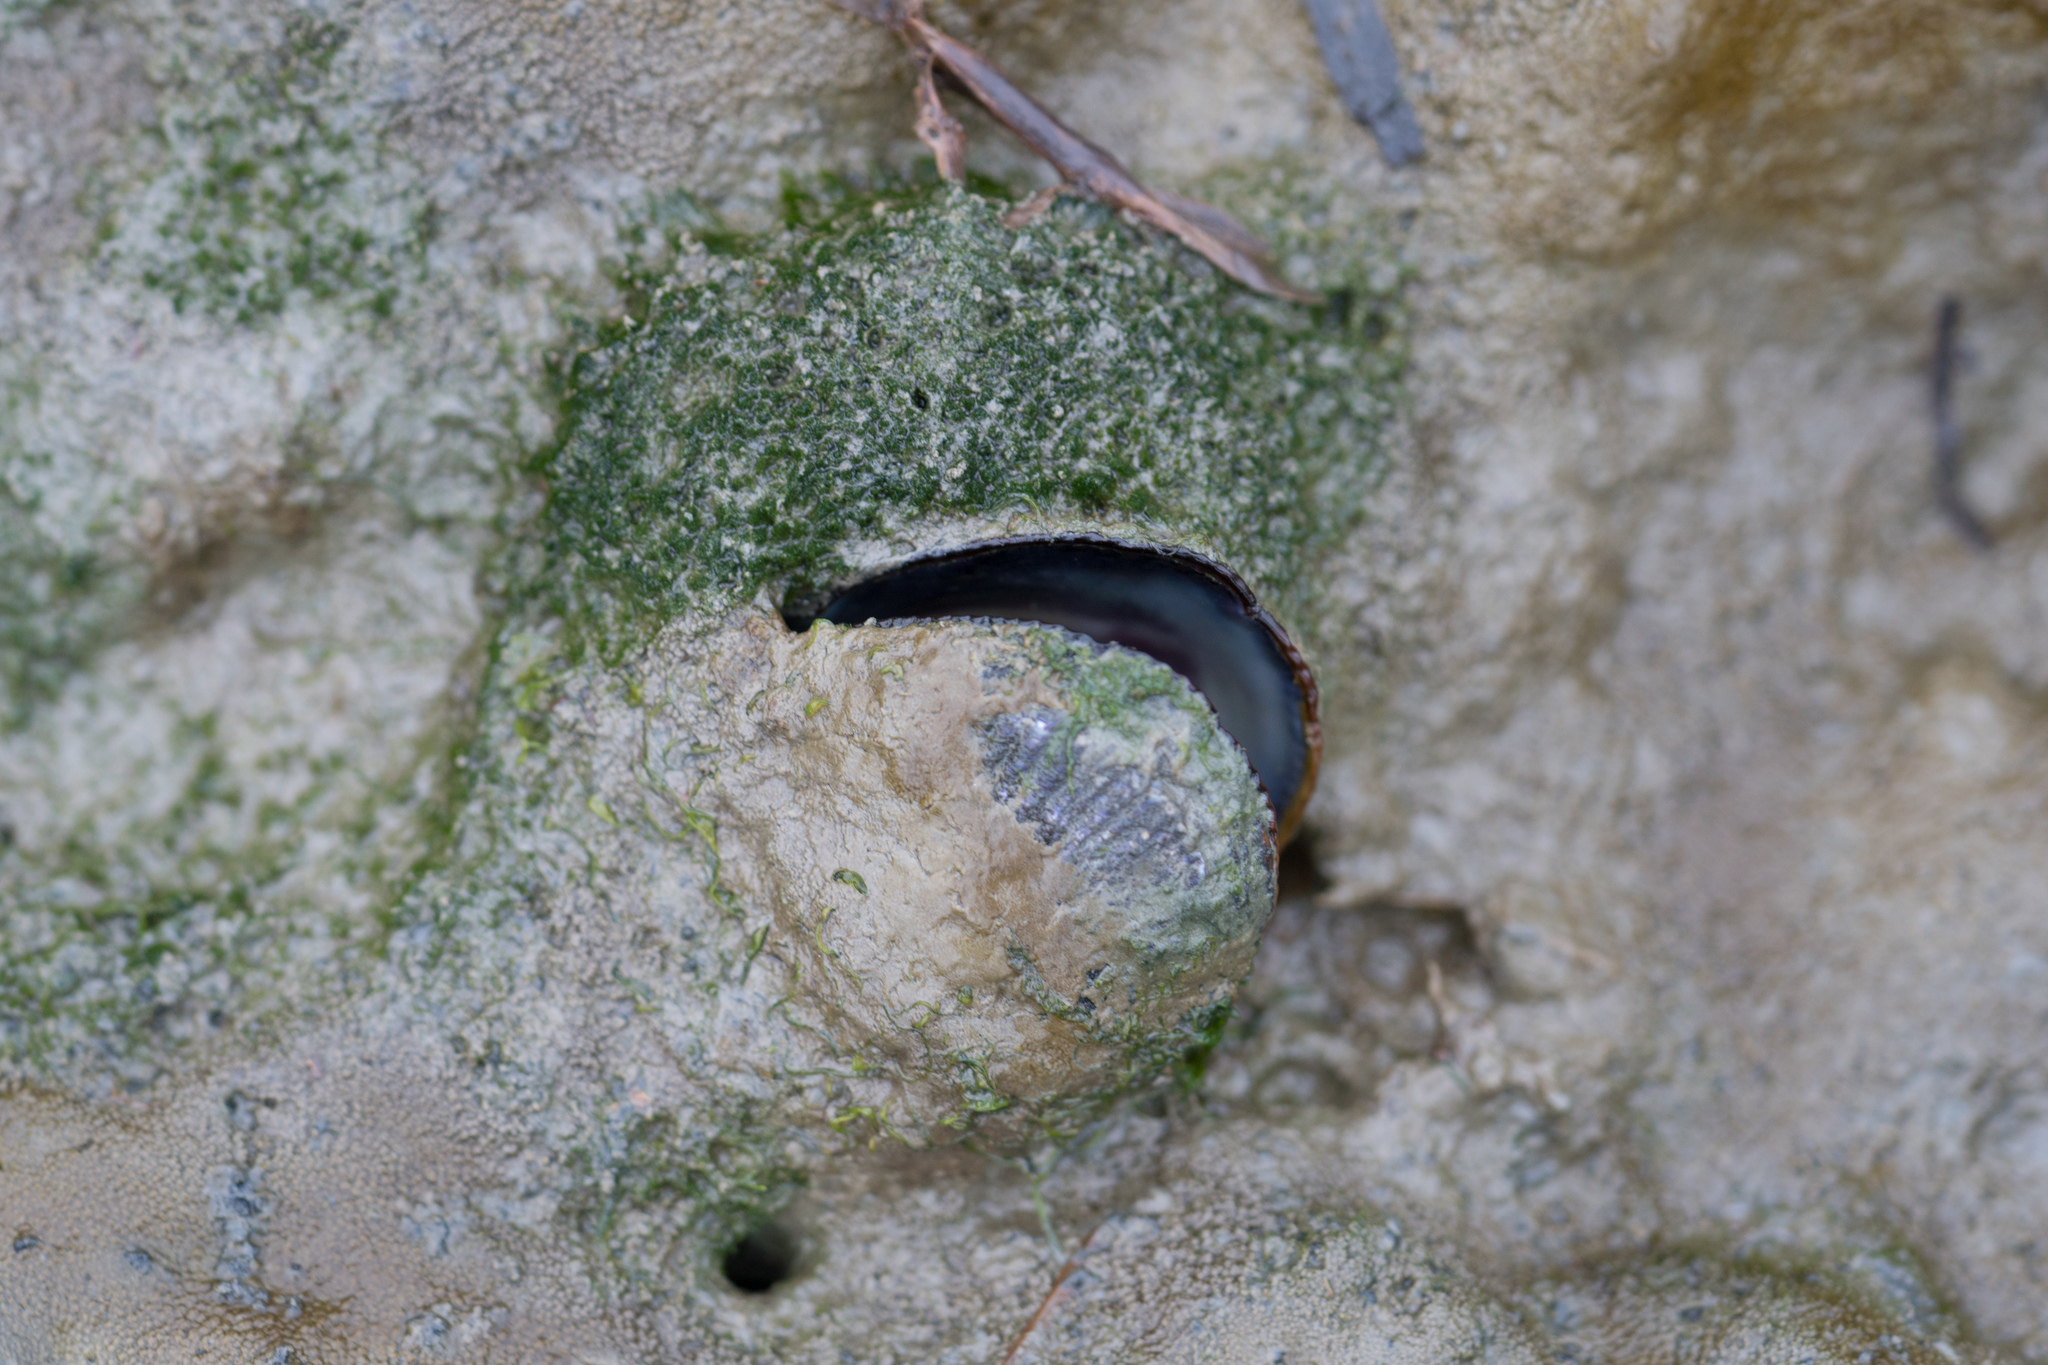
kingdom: Animalia
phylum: Mollusca
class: Bivalvia
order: Mytilida
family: Mytilidae
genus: Geukensia
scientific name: Geukensia demissa
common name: Ribbed mussel
